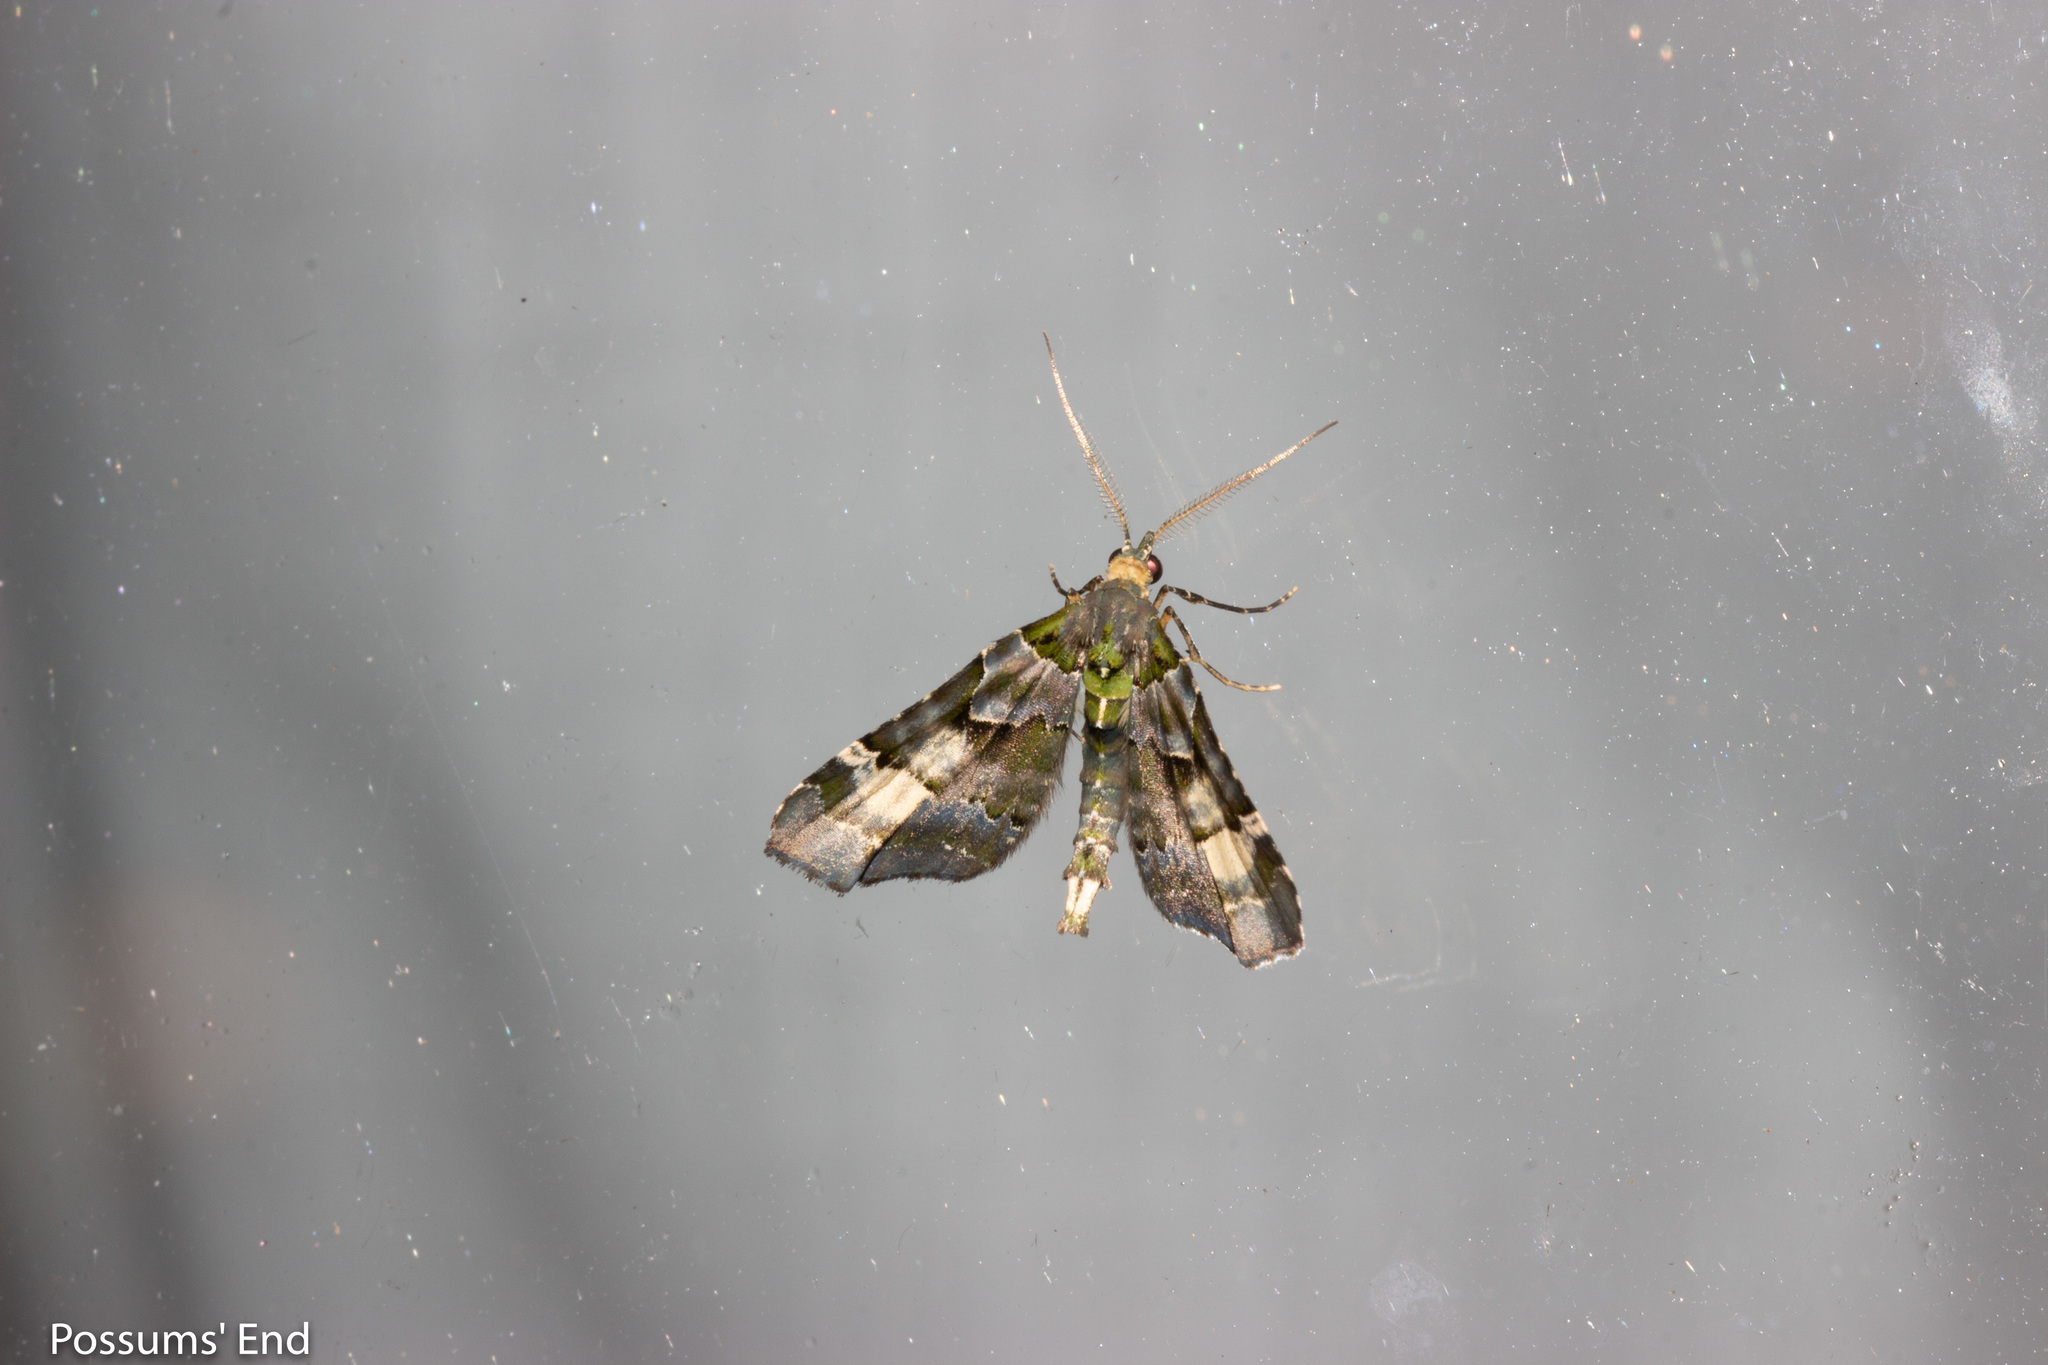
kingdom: Animalia
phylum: Arthropoda
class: Insecta
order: Lepidoptera
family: Geometridae
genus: Elvia
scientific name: Elvia glaucata
